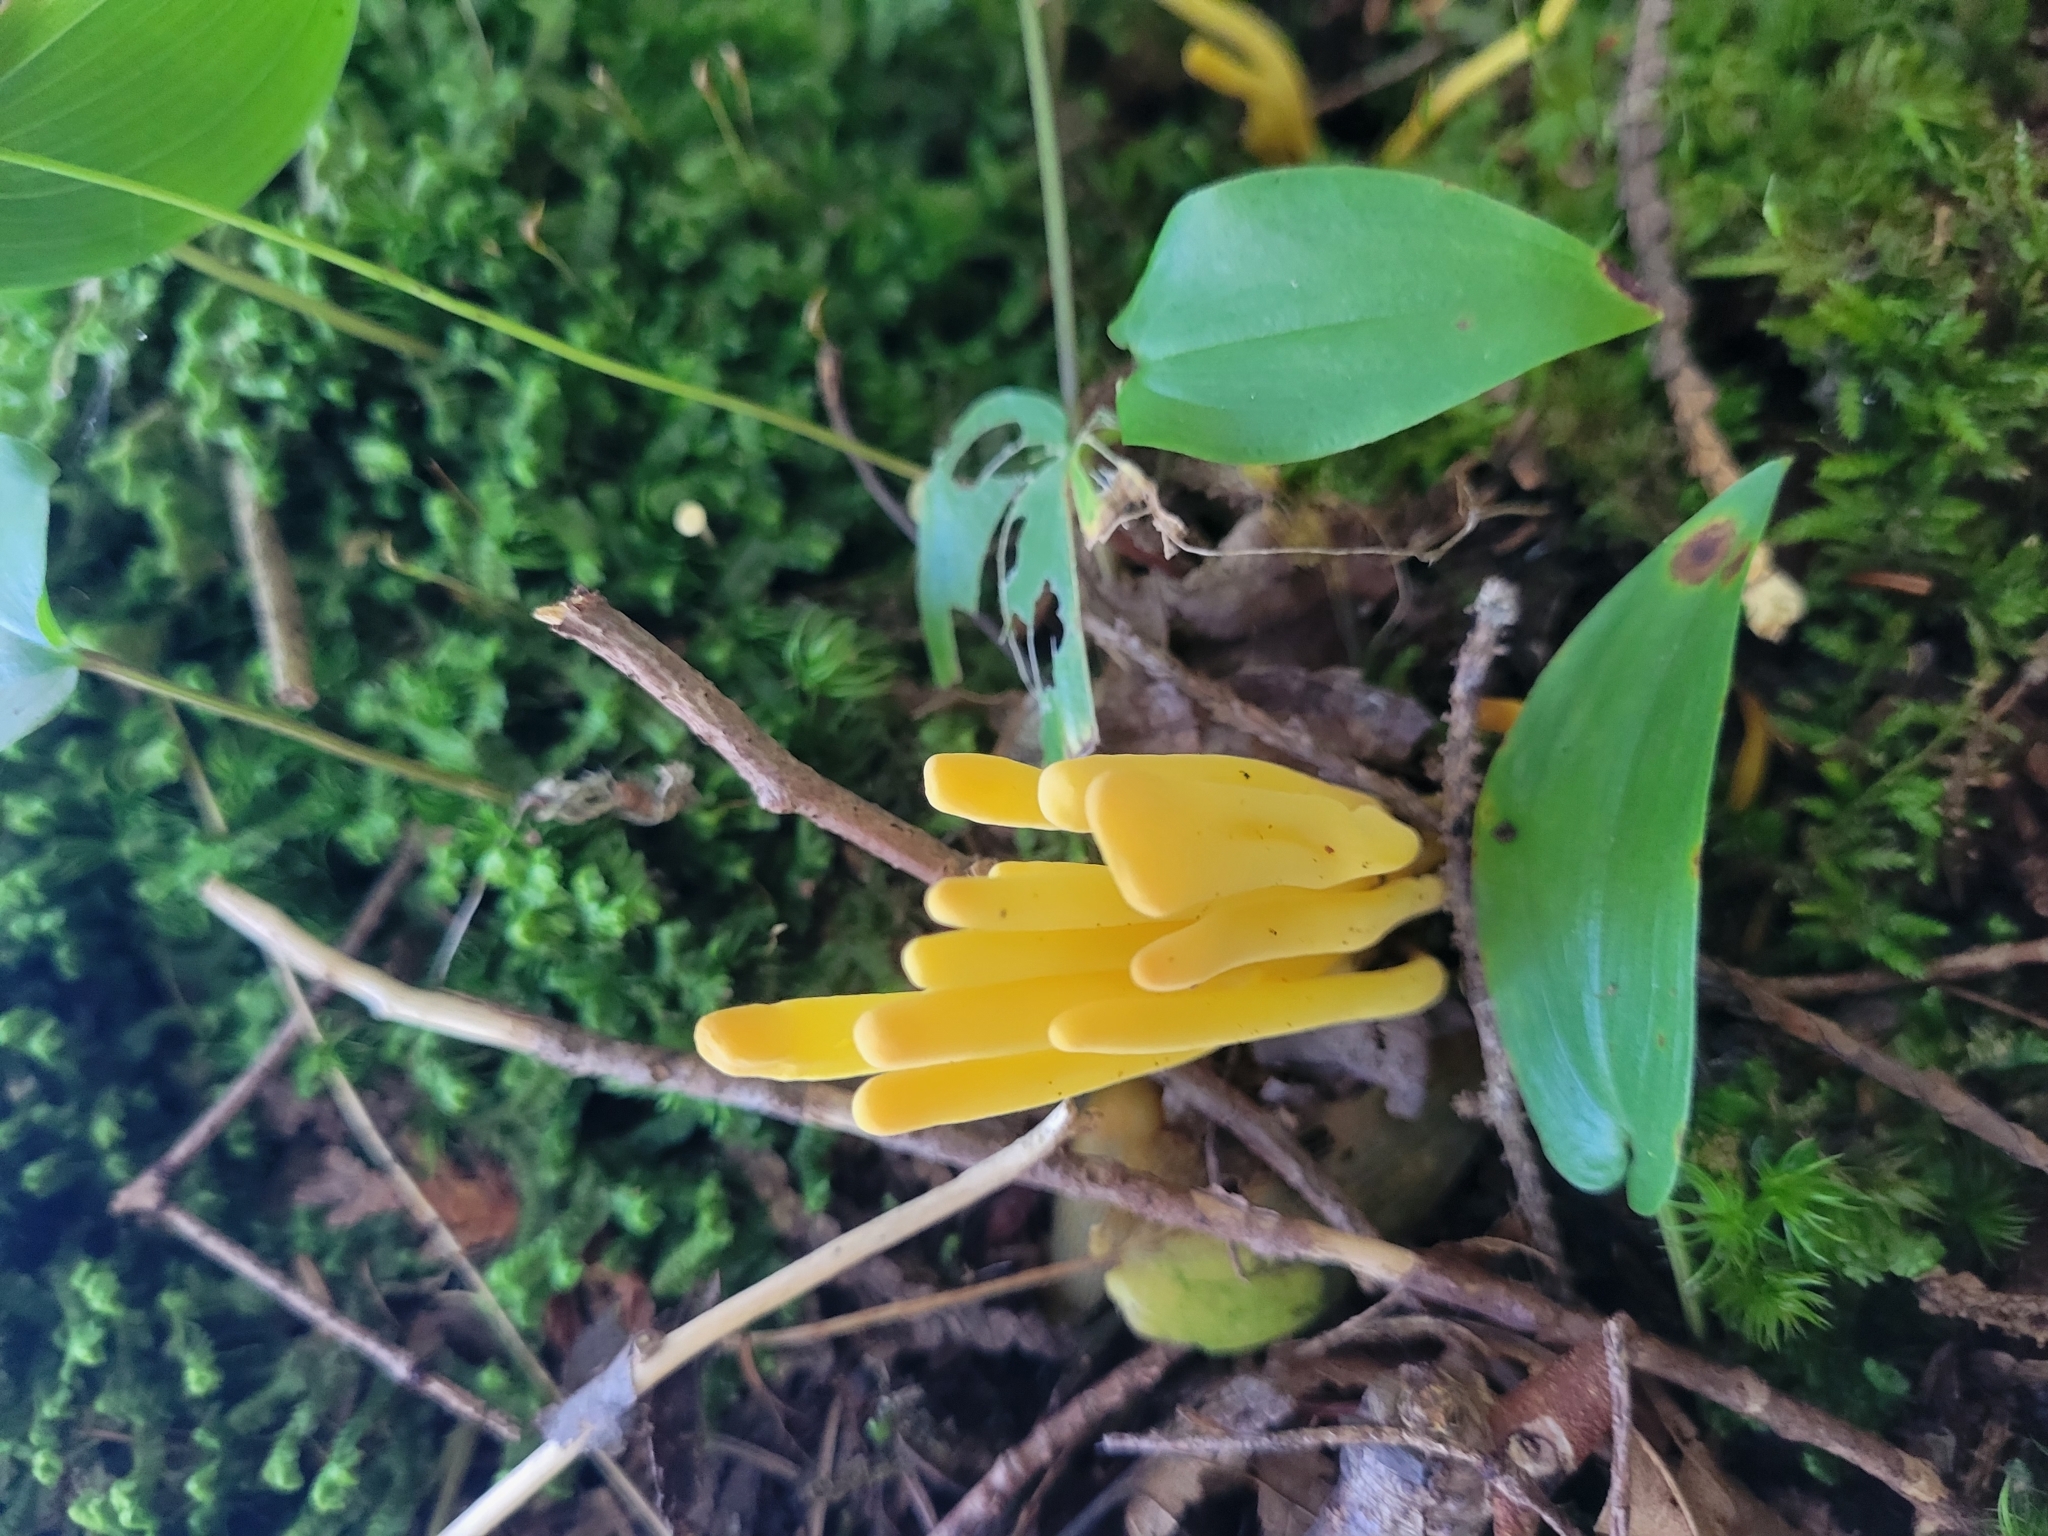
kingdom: Fungi
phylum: Basidiomycota
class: Agaricomycetes
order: Agaricales
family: Clavariaceae
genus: Clavulinopsis
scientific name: Clavulinopsis fusiformis
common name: Golden spindles
